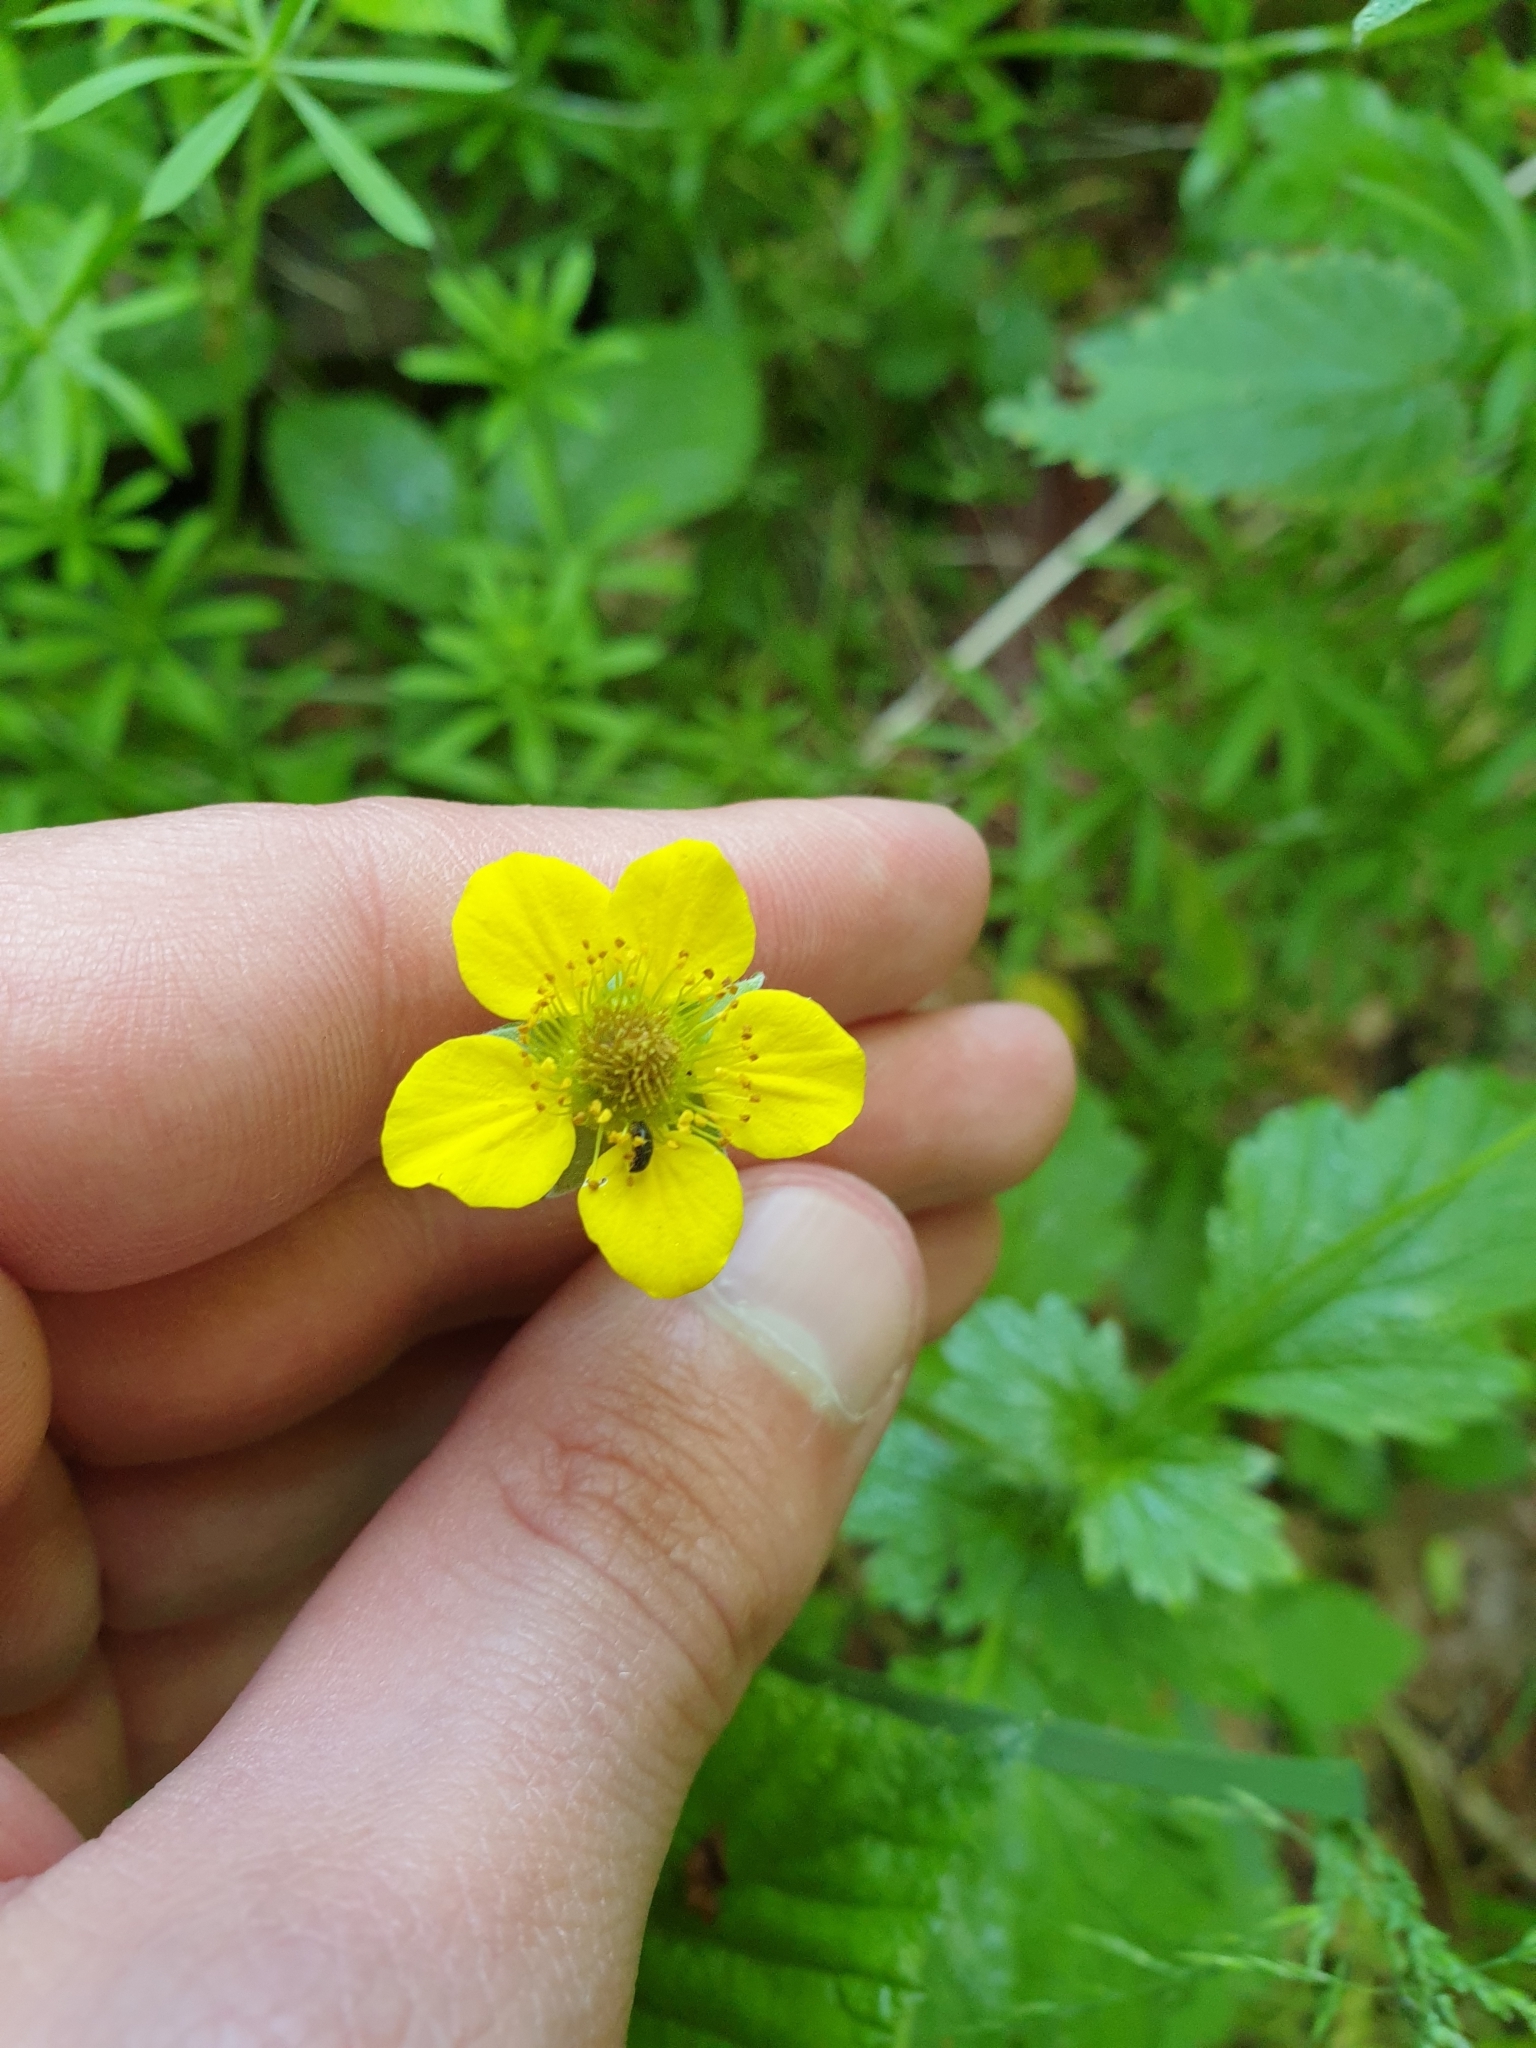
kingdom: Plantae
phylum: Tracheophyta
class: Magnoliopsida
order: Rosales
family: Rosaceae
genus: Geum
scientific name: Geum urbanum
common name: Wood avens
